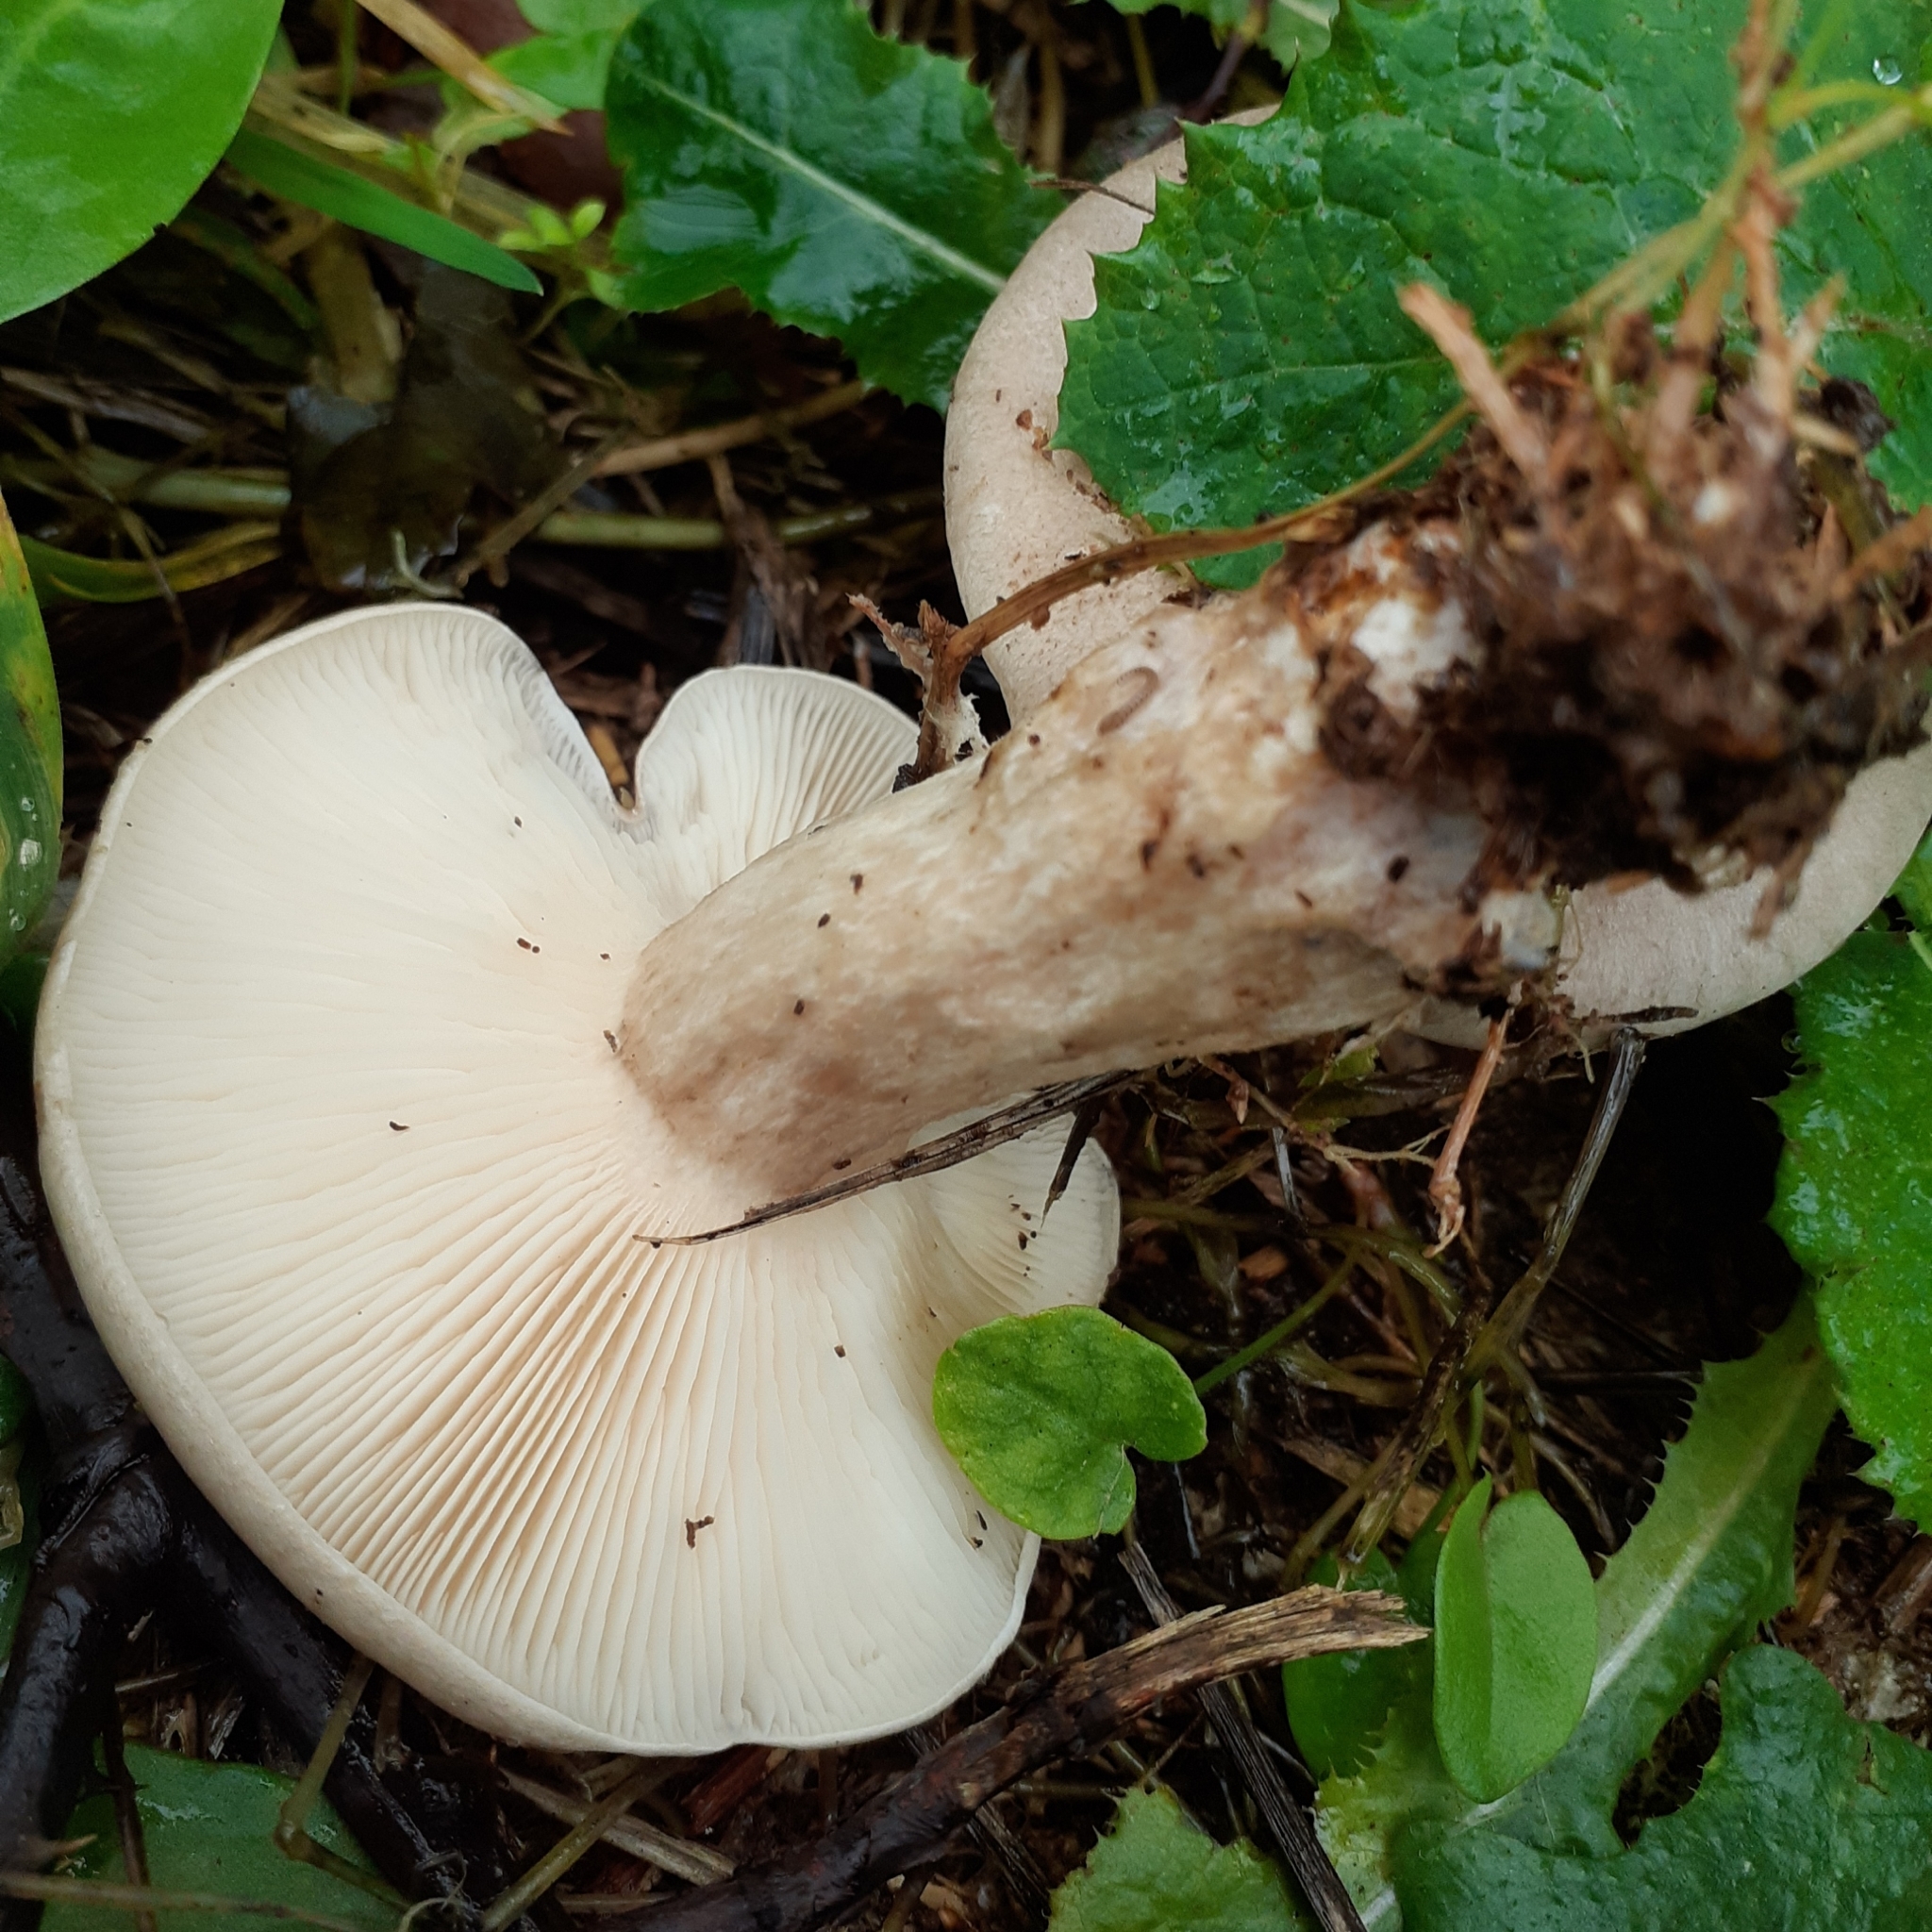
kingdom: Fungi
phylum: Basidiomycota
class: Agaricomycetes
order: Agaricales
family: Tricholomataceae
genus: Clitocybe
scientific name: Clitocybe nebularis
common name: Clouded agaric
